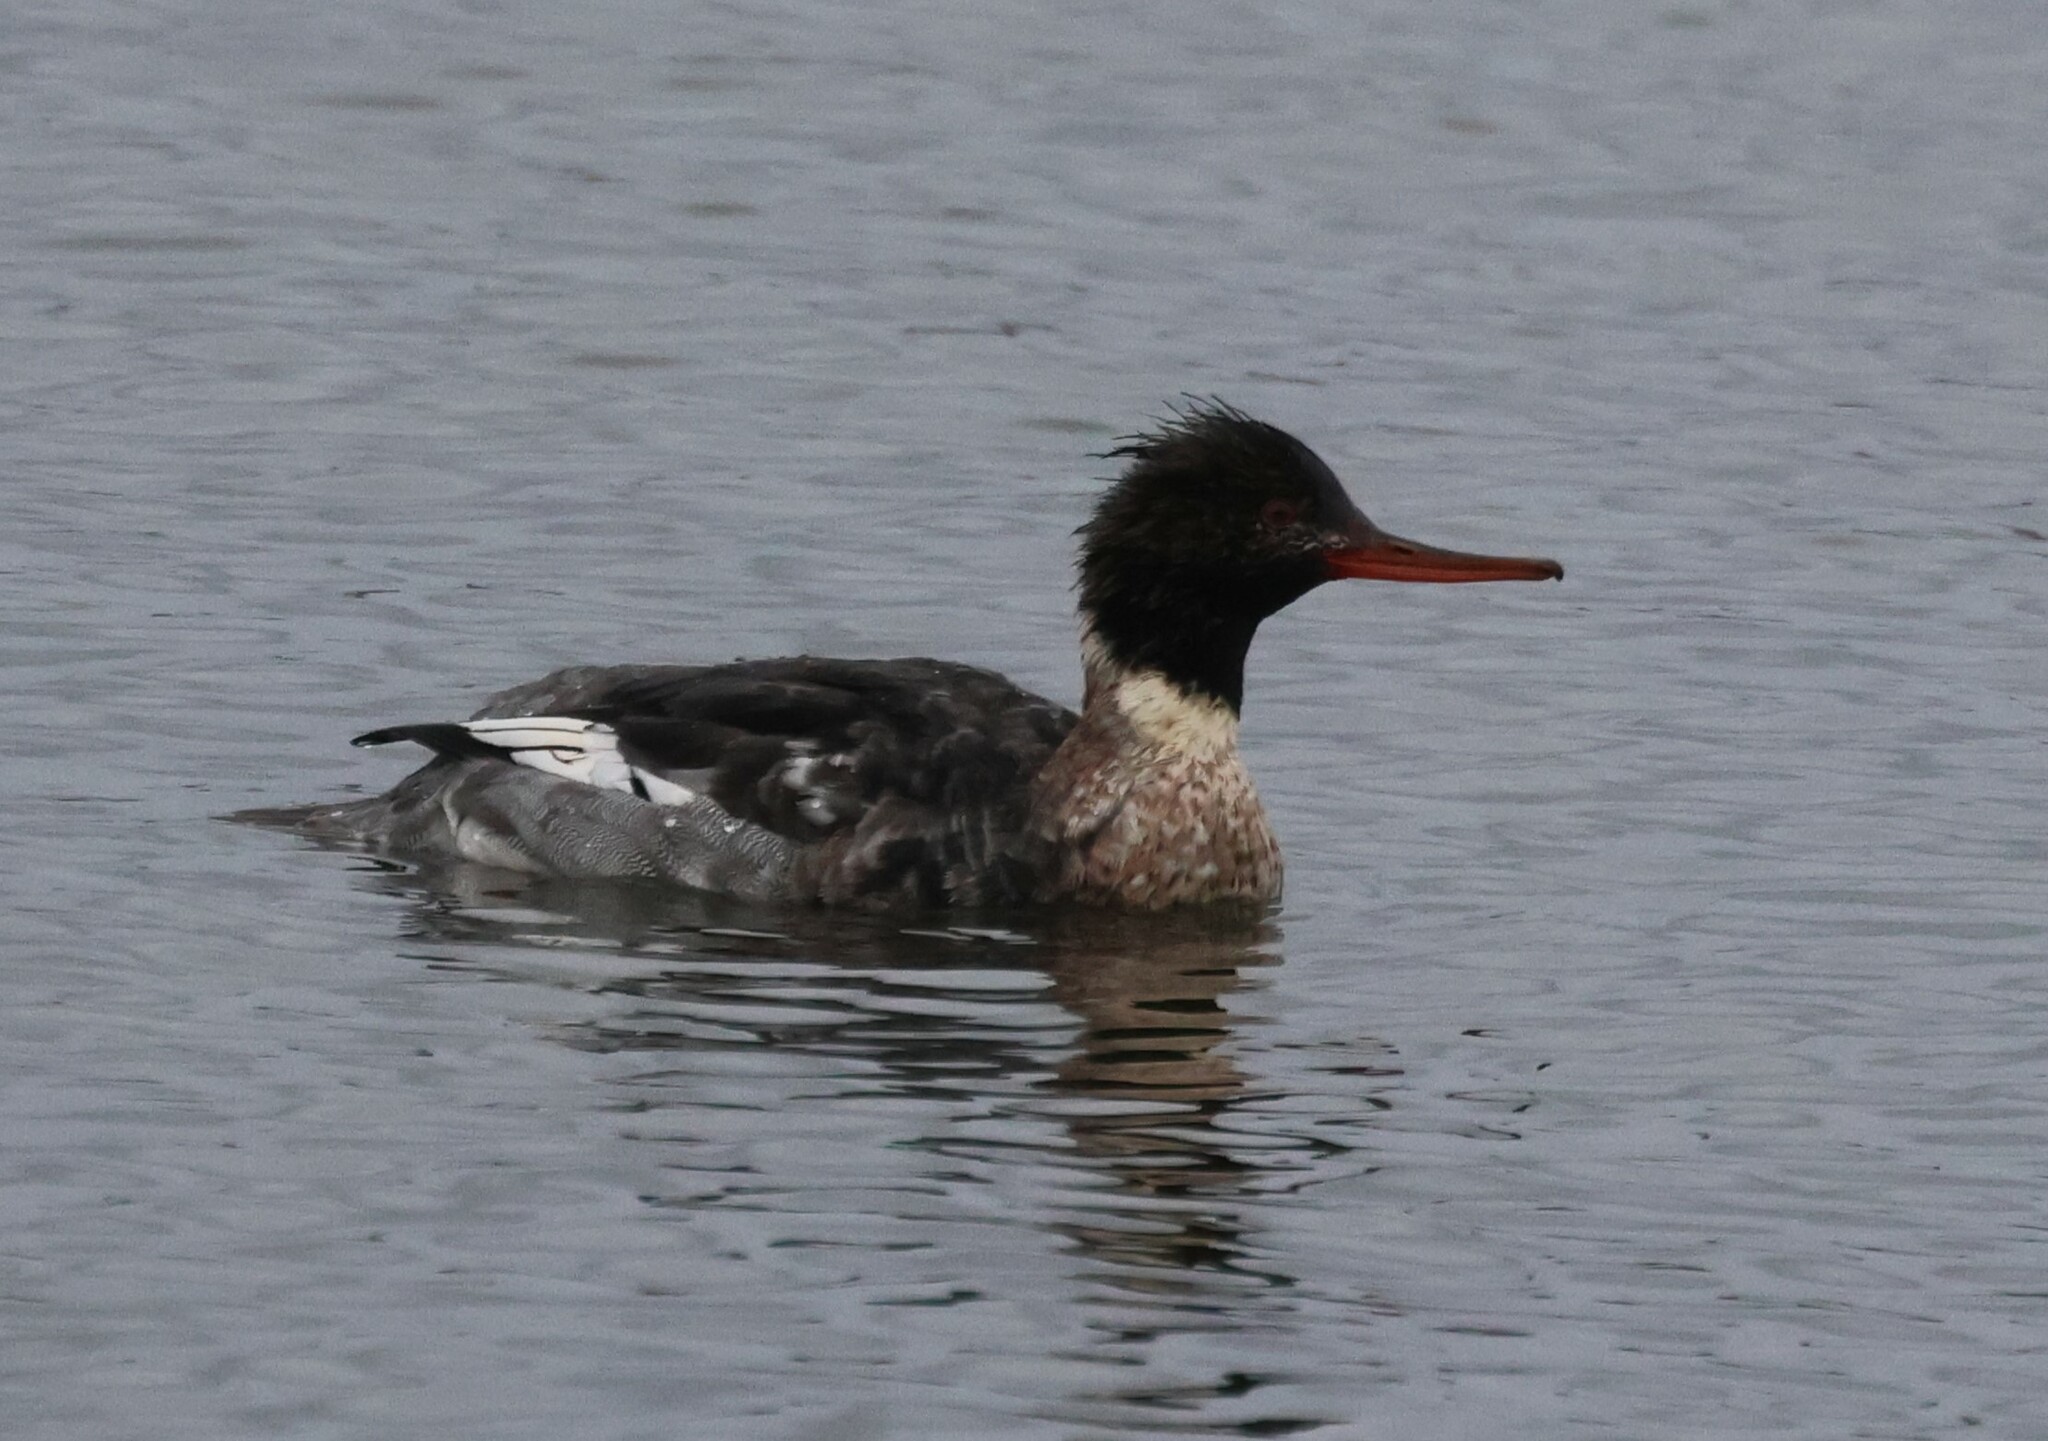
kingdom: Animalia
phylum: Chordata
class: Aves
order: Anseriformes
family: Anatidae
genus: Mergus
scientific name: Mergus serrator
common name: Red-breasted merganser
